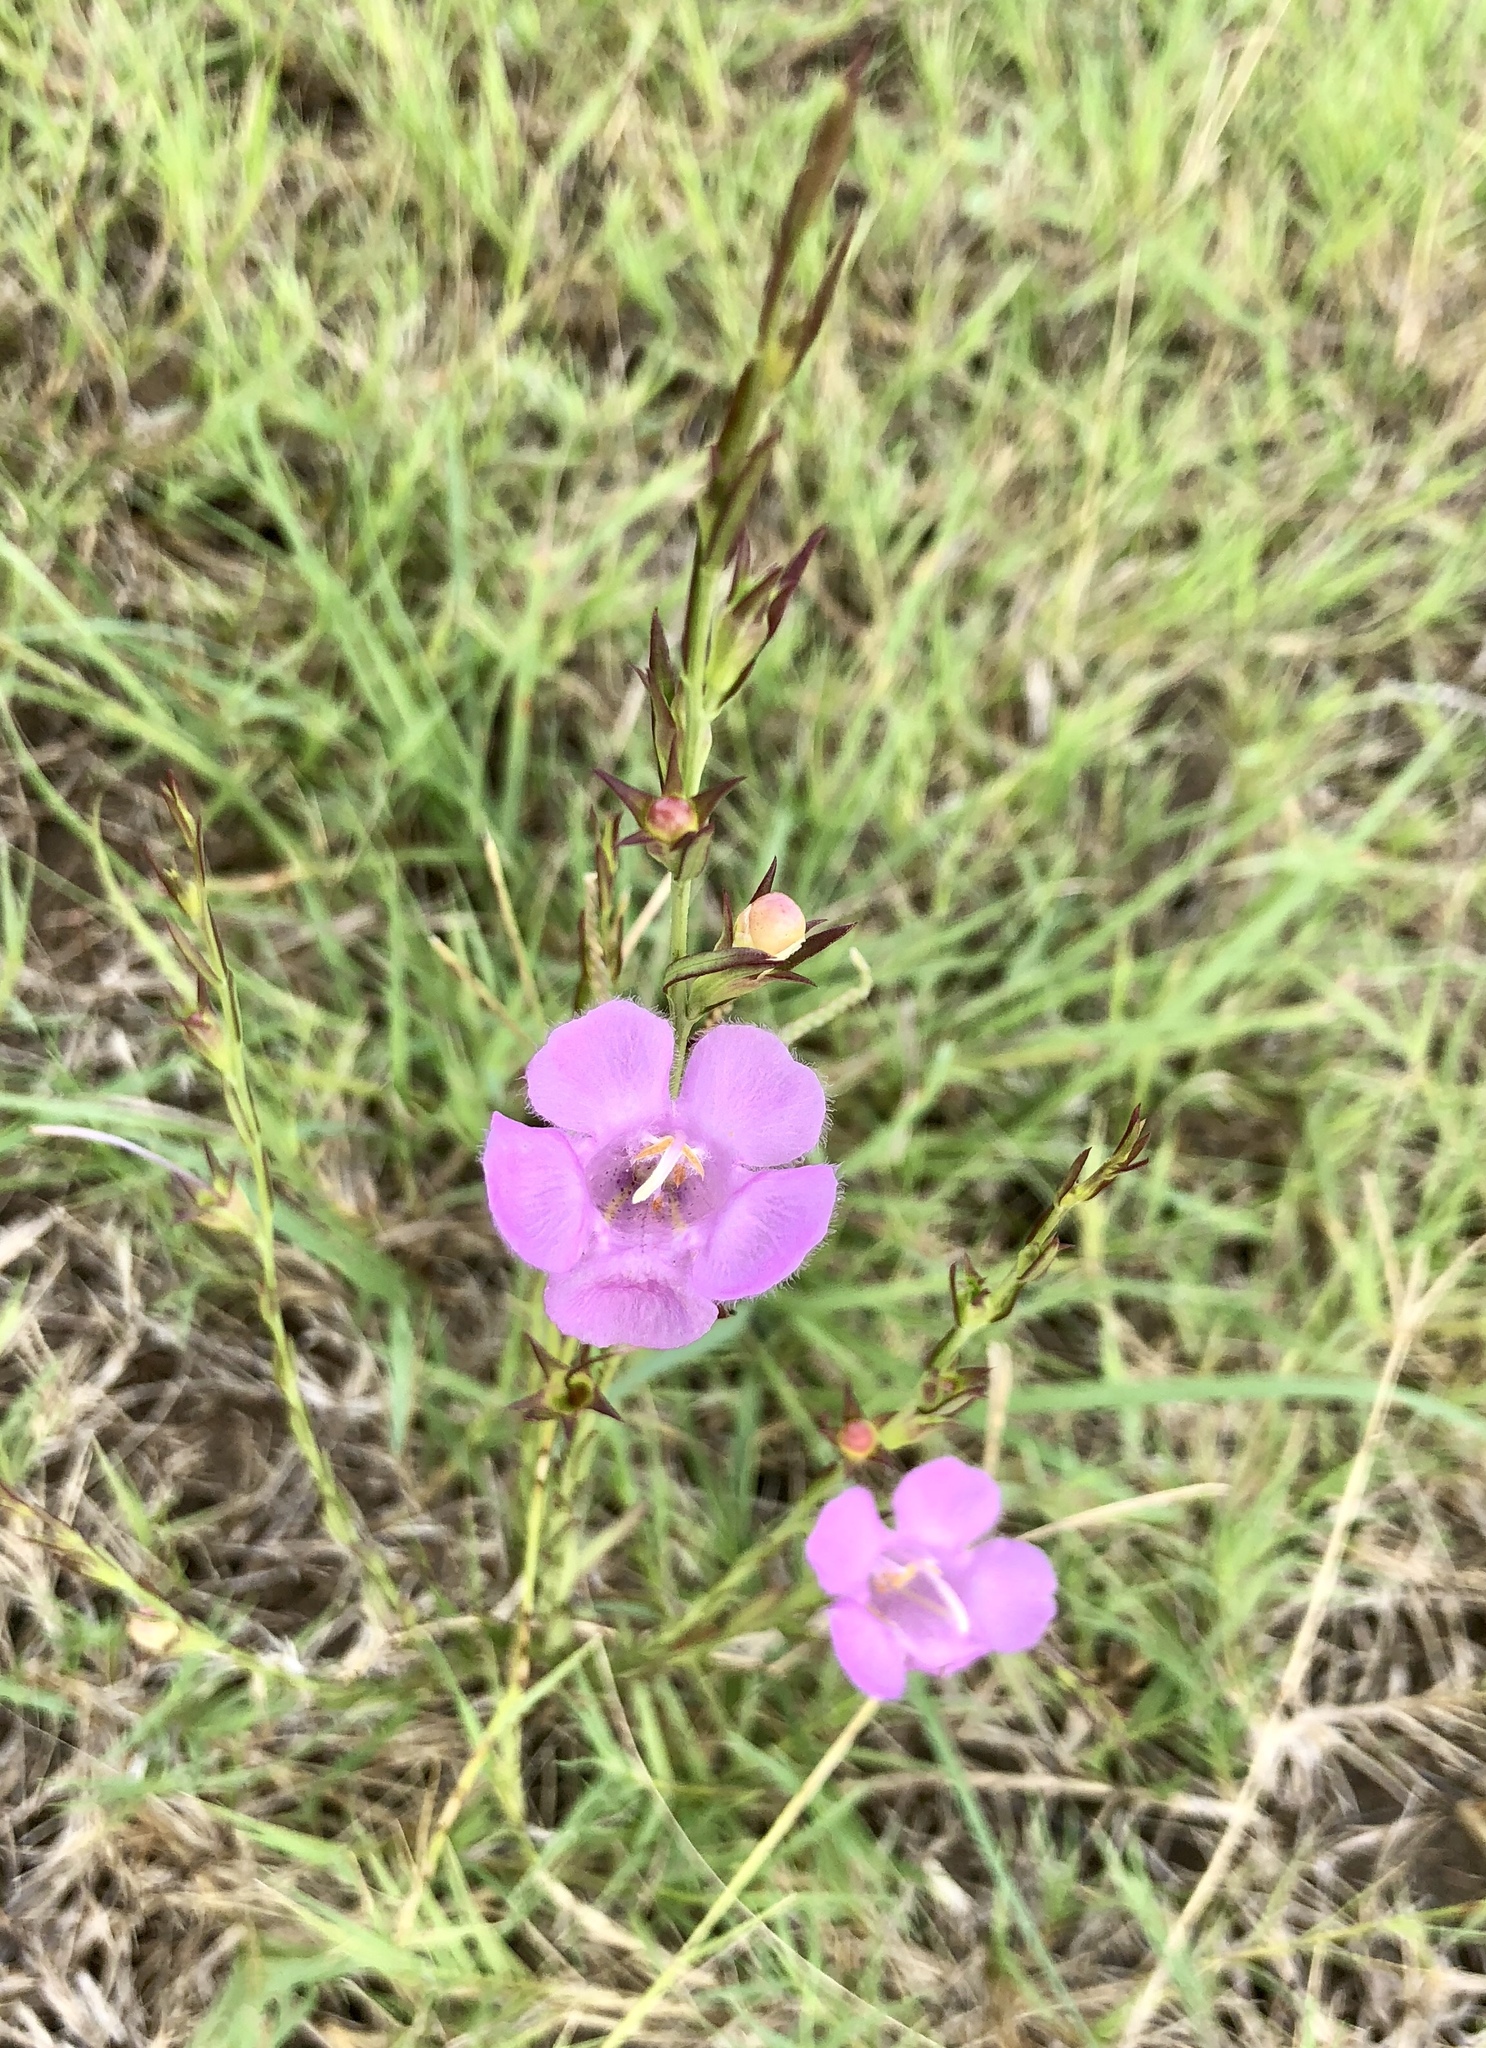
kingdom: Plantae
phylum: Tracheophyta
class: Magnoliopsida
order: Lamiales
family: Orobanchaceae
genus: Agalinis
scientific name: Agalinis heterophylla
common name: Prairie agalinis
